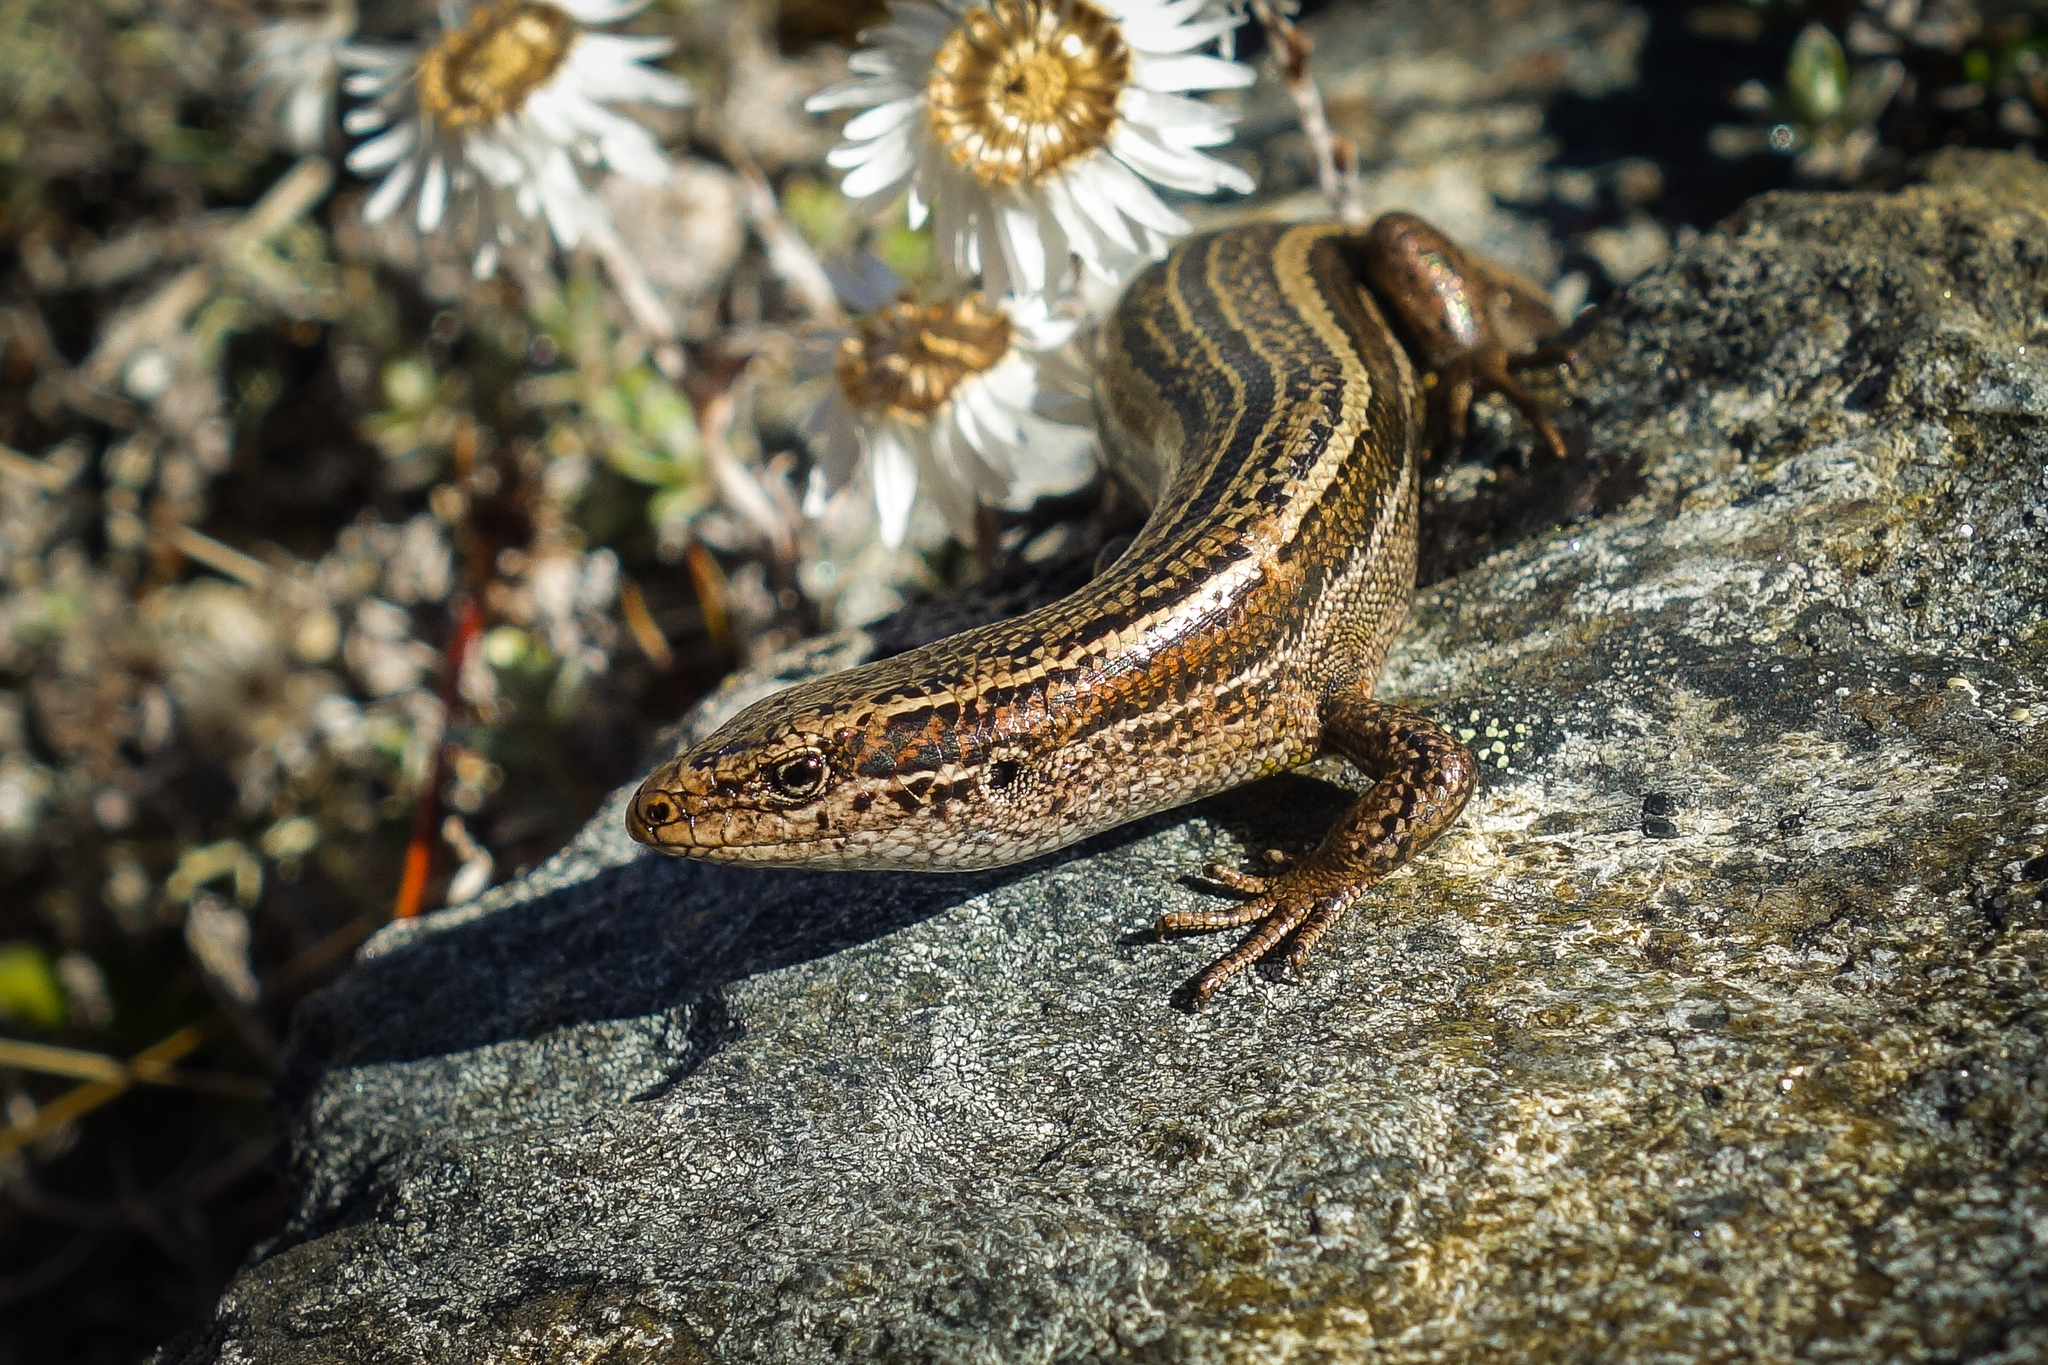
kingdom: Animalia
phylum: Chordata
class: Squamata
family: Scincidae
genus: Oligosoma
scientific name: Oligosoma toka
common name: Nevis skink
